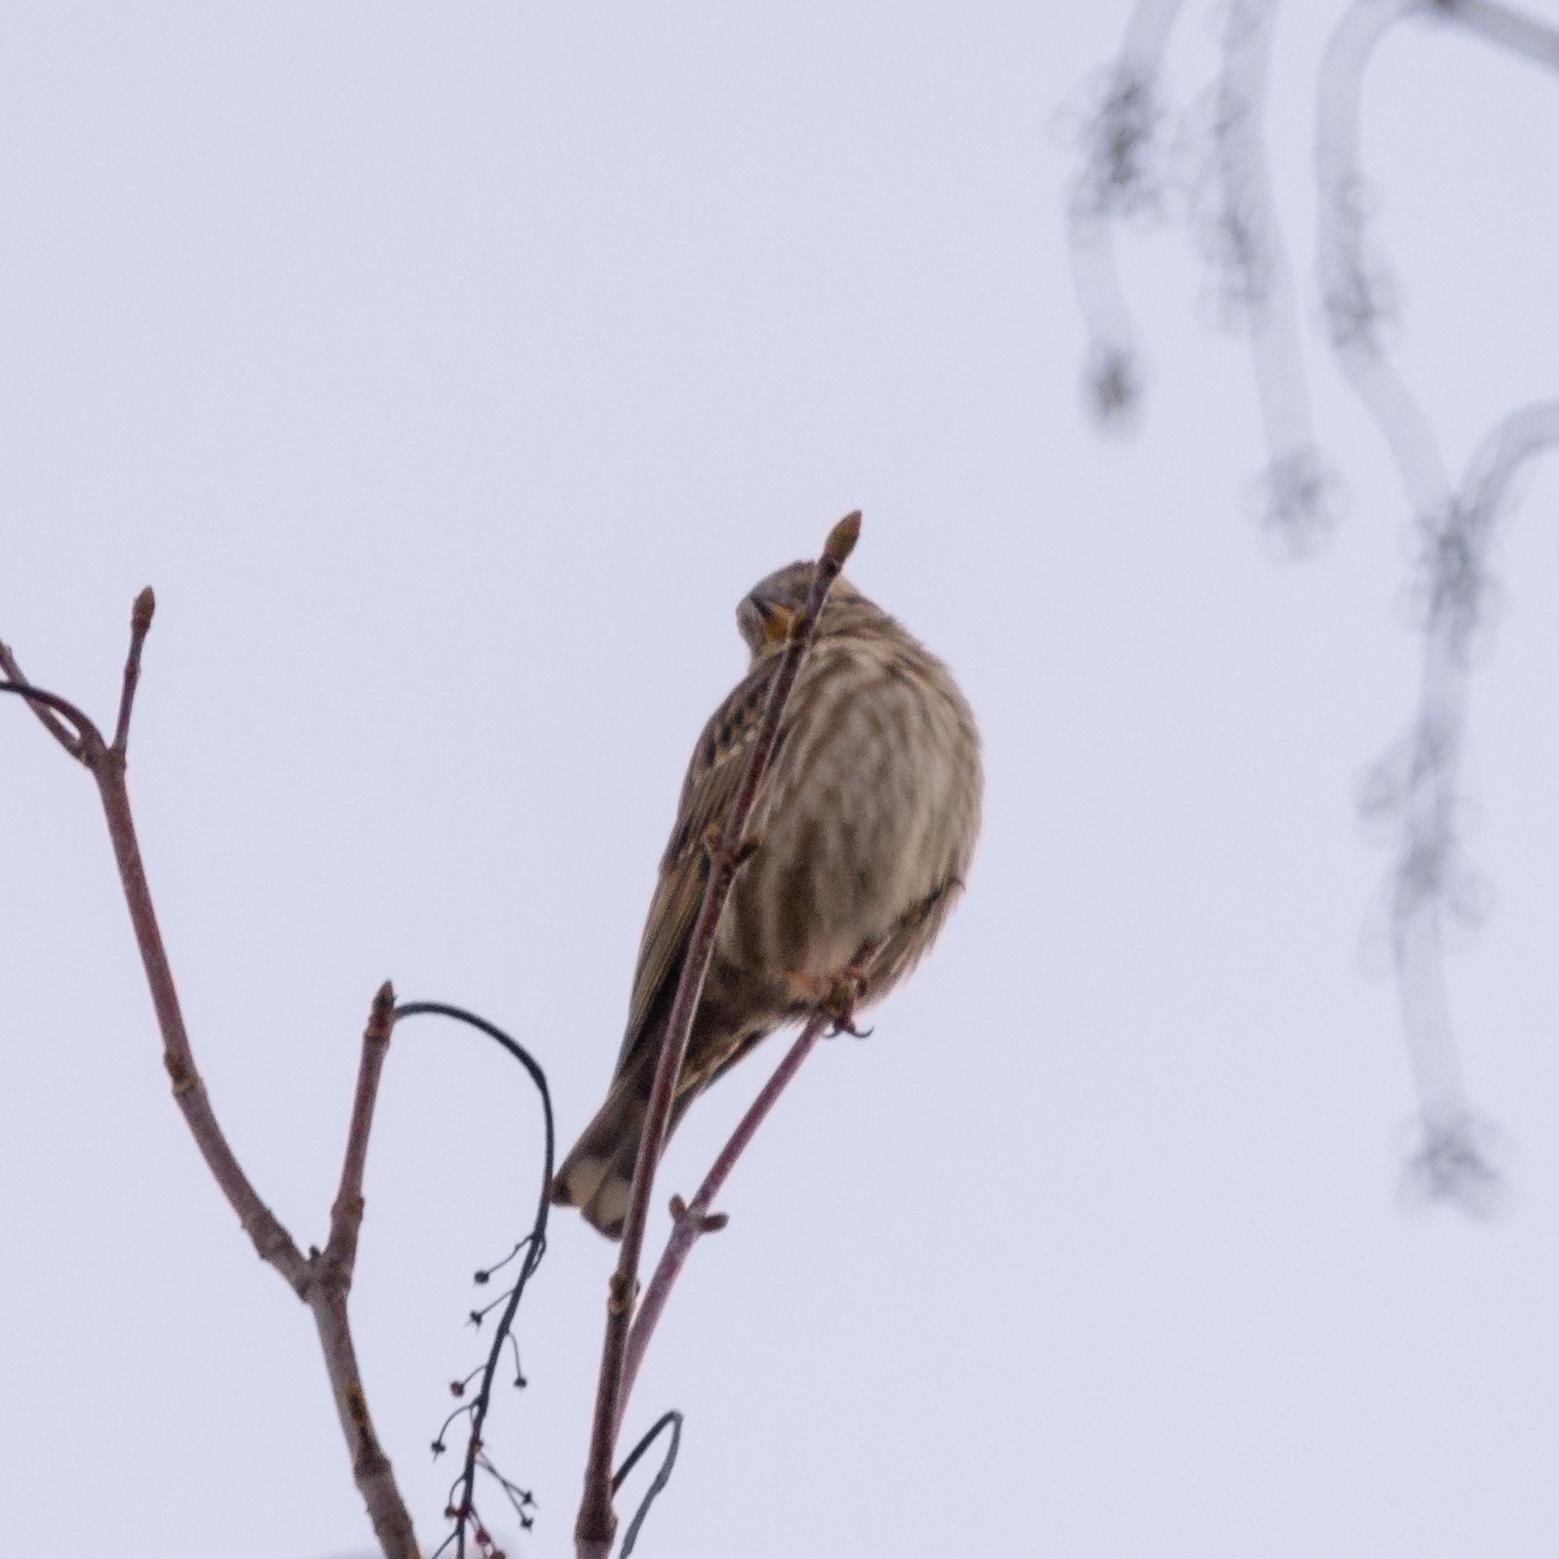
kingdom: Animalia
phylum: Chordata
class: Aves
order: Passeriformes
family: Passeridae
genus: Petronia
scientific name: Petronia petronia
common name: Rock sparrow
